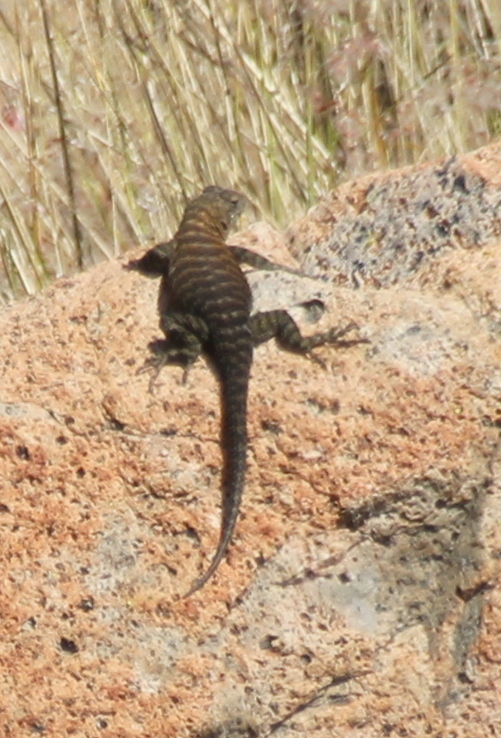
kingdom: Animalia
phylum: Chordata
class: Squamata
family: Phrynosomatidae
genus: Sceloporus
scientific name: Sceloporus orcutti
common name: Granite spiny lizard
